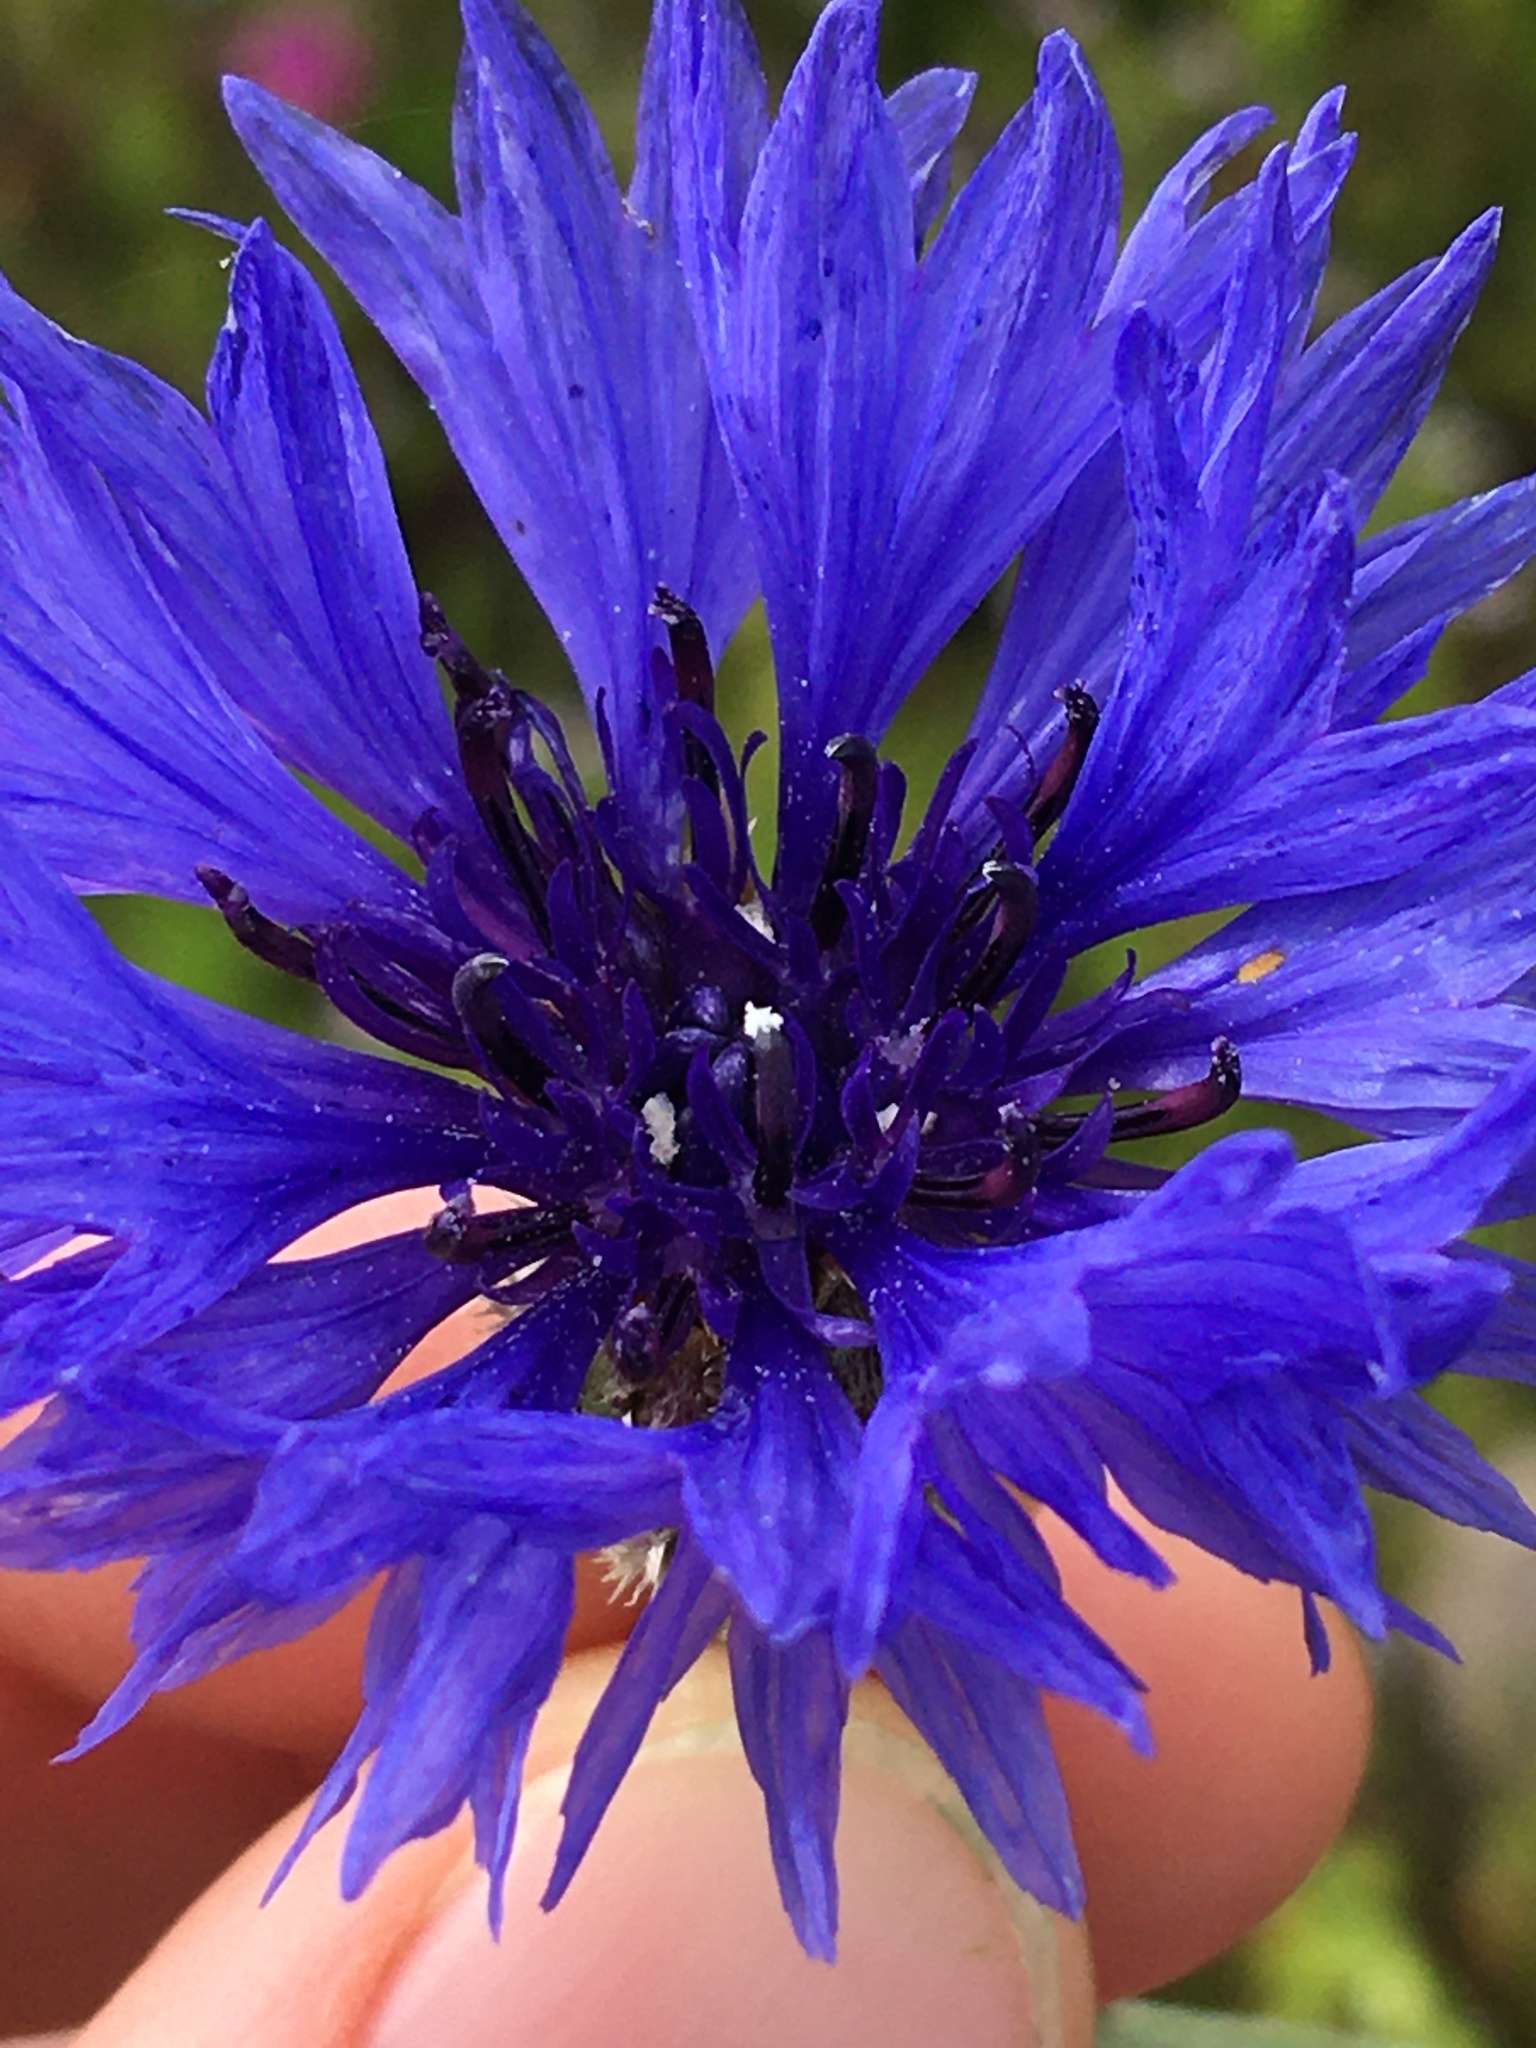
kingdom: Plantae
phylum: Tracheophyta
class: Magnoliopsida
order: Asterales
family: Asteraceae
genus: Centaurea
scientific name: Centaurea cyanus
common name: Cornflower
